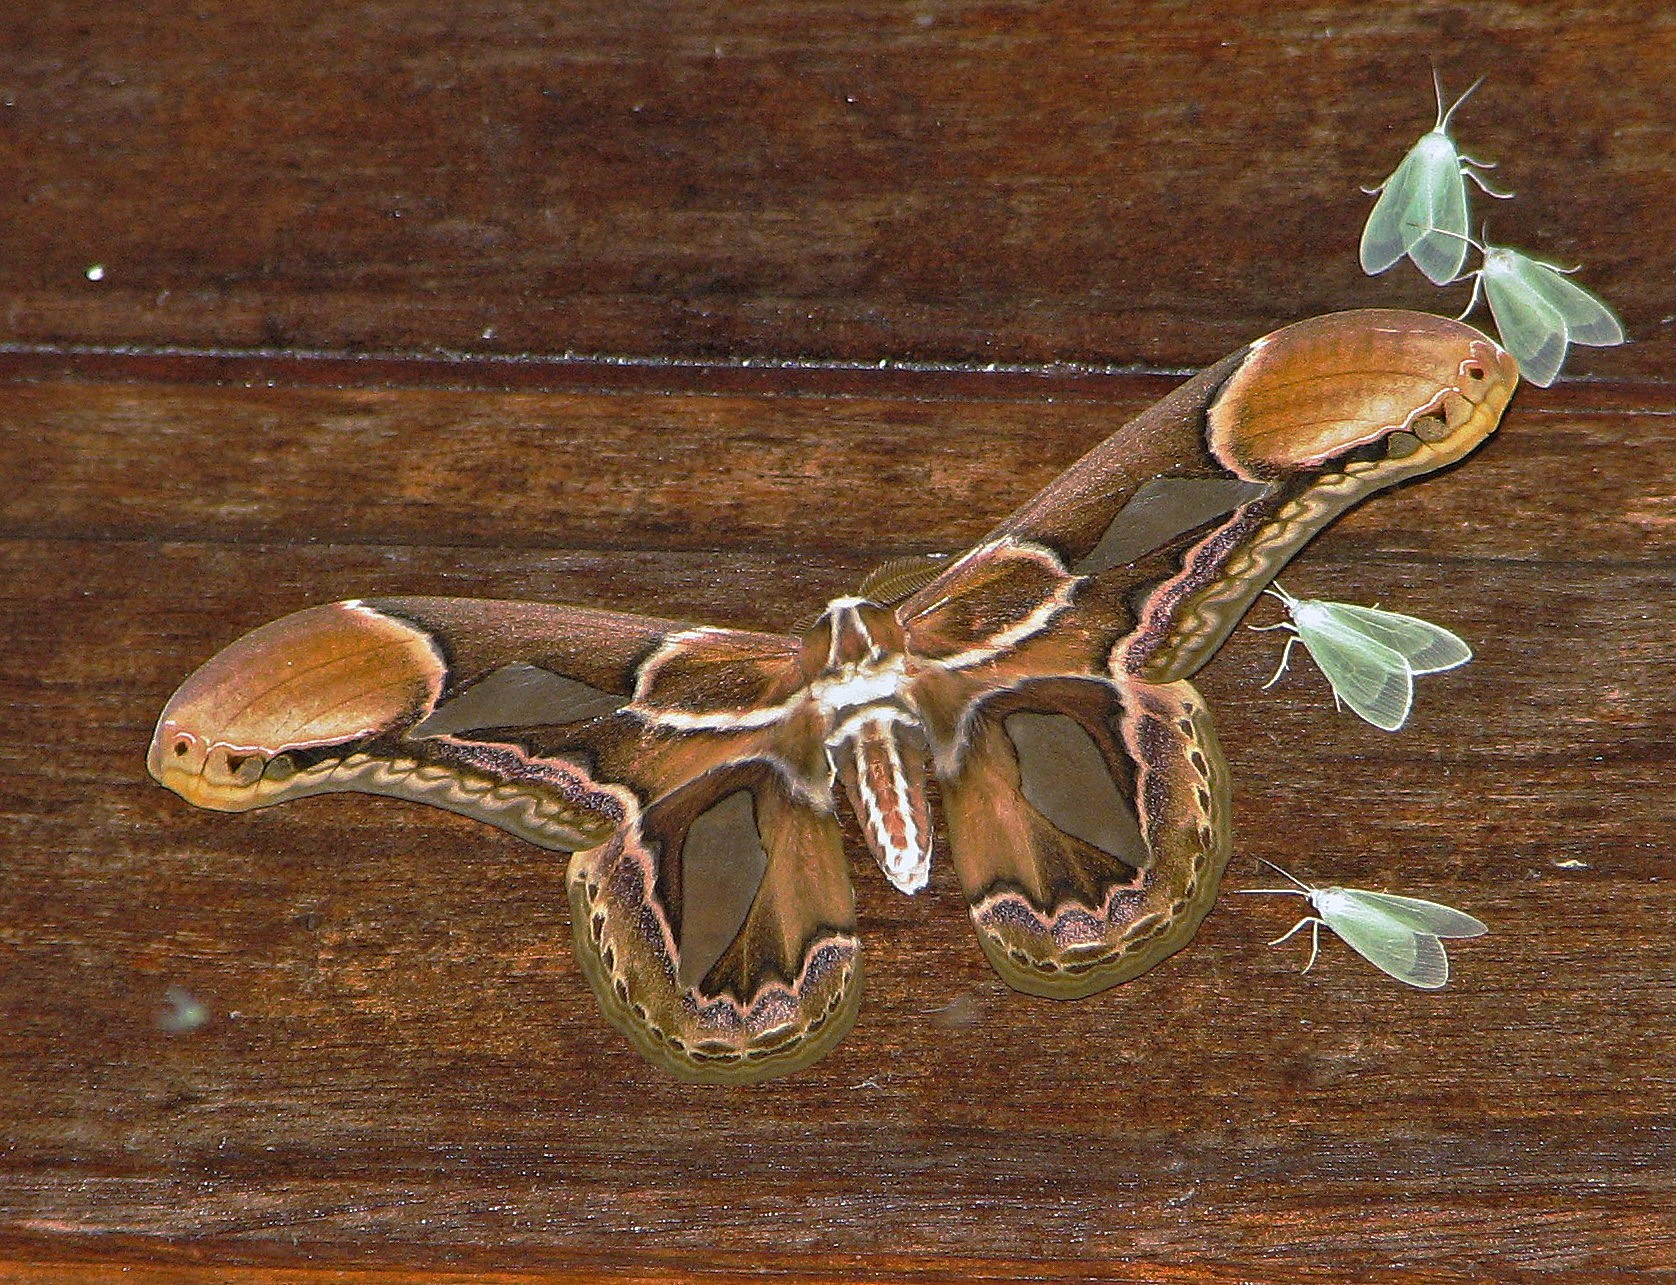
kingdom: Animalia
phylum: Arthropoda
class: Insecta
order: Lepidoptera
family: Saturniidae
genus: Rothschildia
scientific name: Rothschildia hopfferi
